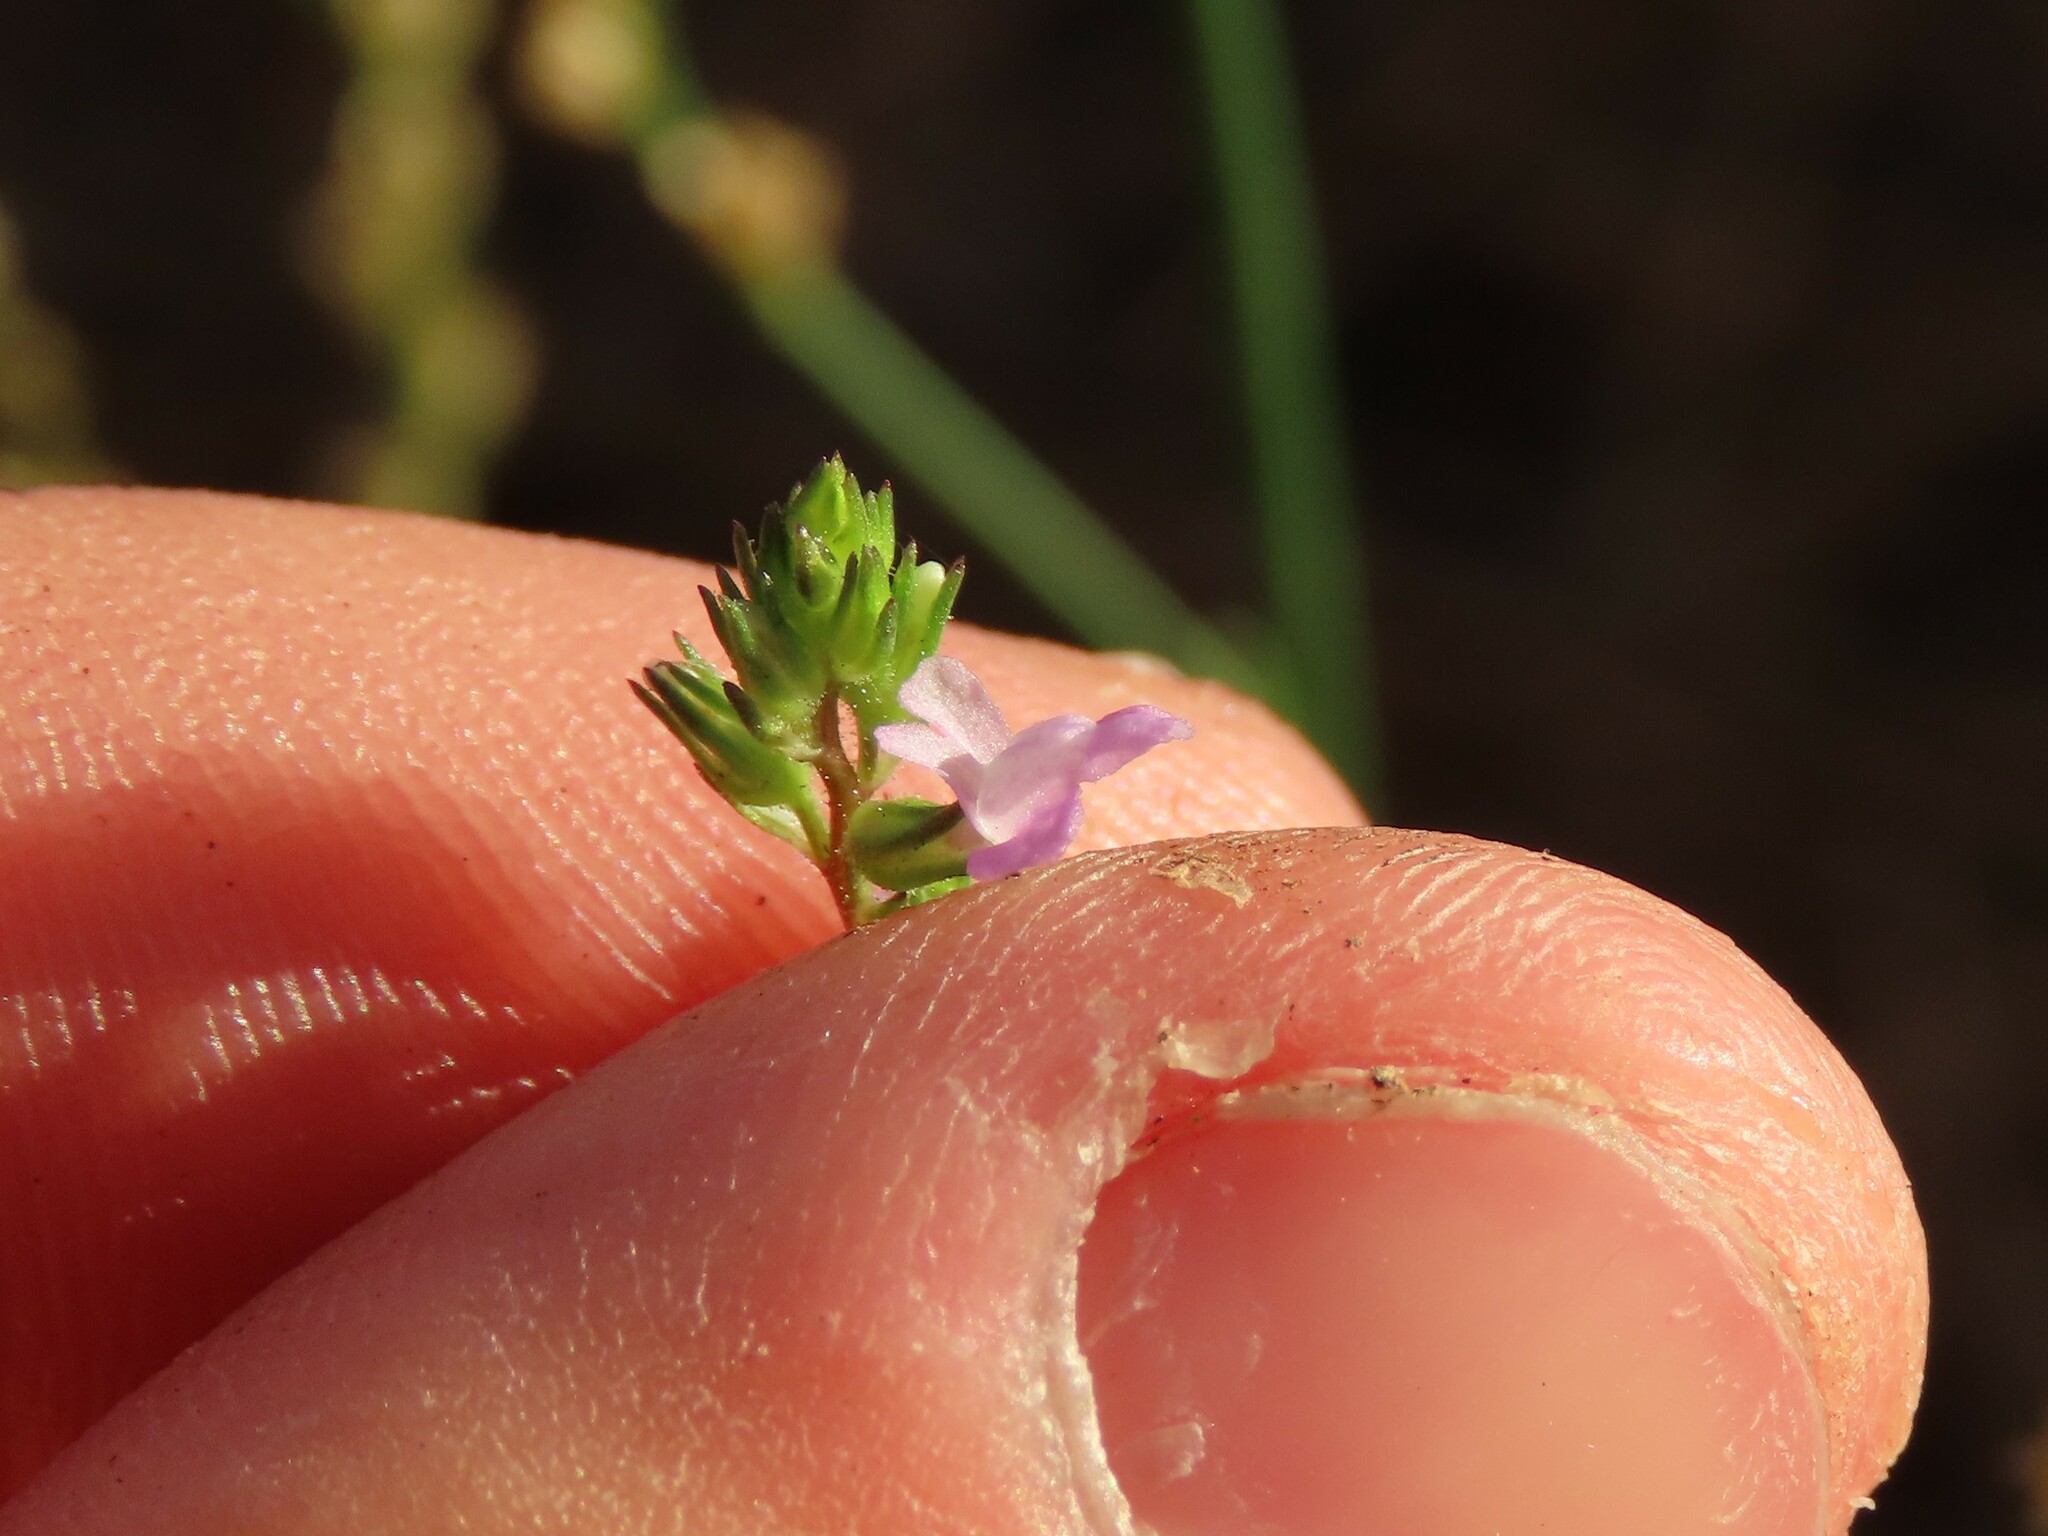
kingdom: Plantae
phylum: Tracheophyta
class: Magnoliopsida
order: Lamiales
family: Plantaginaceae
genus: Nuttallanthus
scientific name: Nuttallanthus canadensis
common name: Blue toadflax
